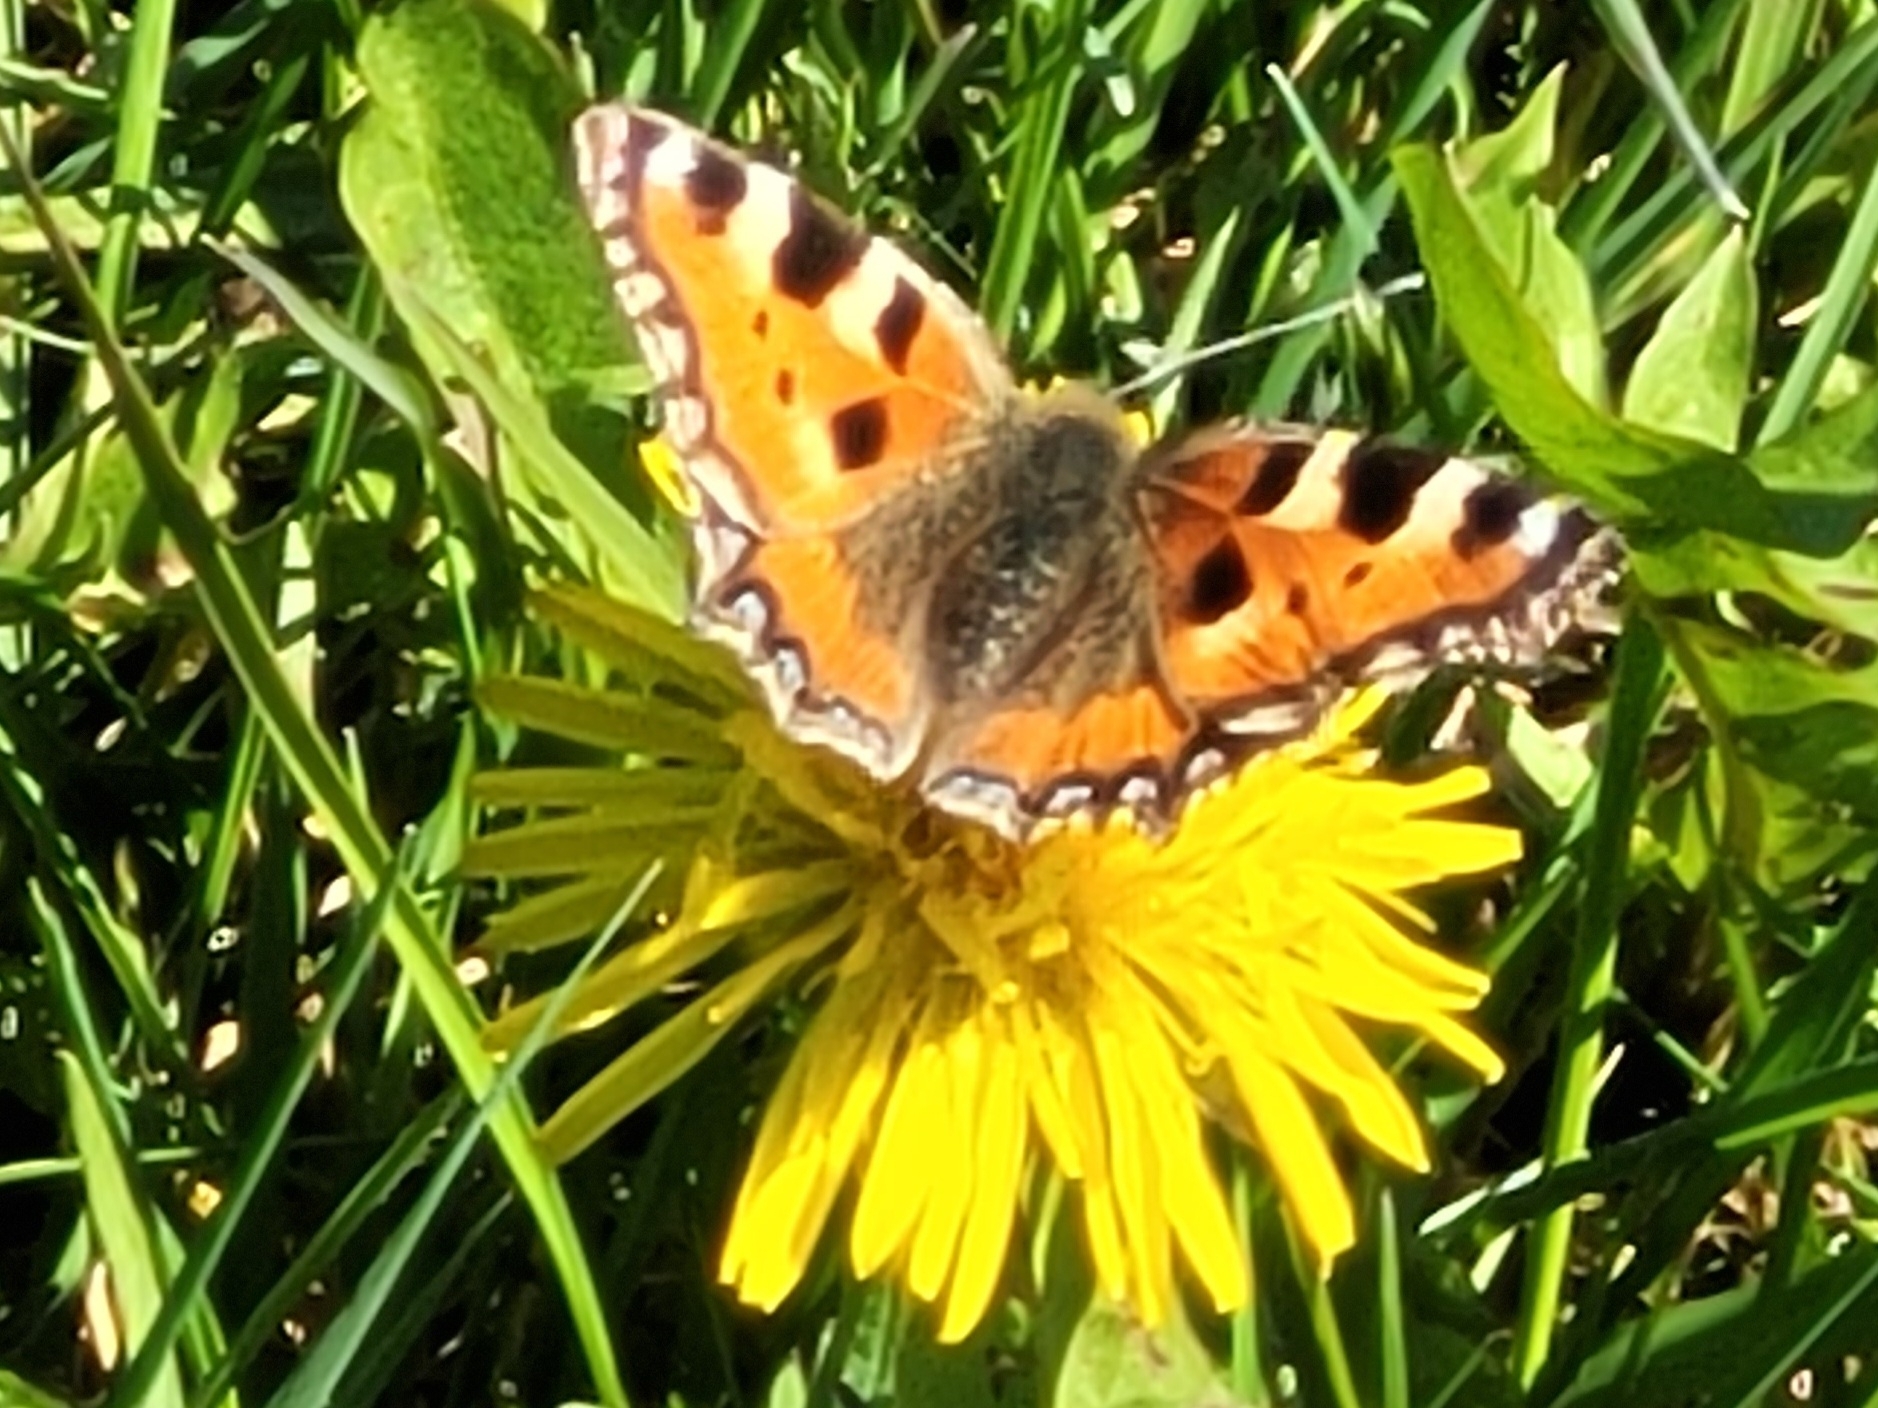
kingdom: Animalia
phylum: Arthropoda
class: Insecta
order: Lepidoptera
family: Nymphalidae
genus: Aglais
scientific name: Aglais urticae
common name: Small tortoiseshell
